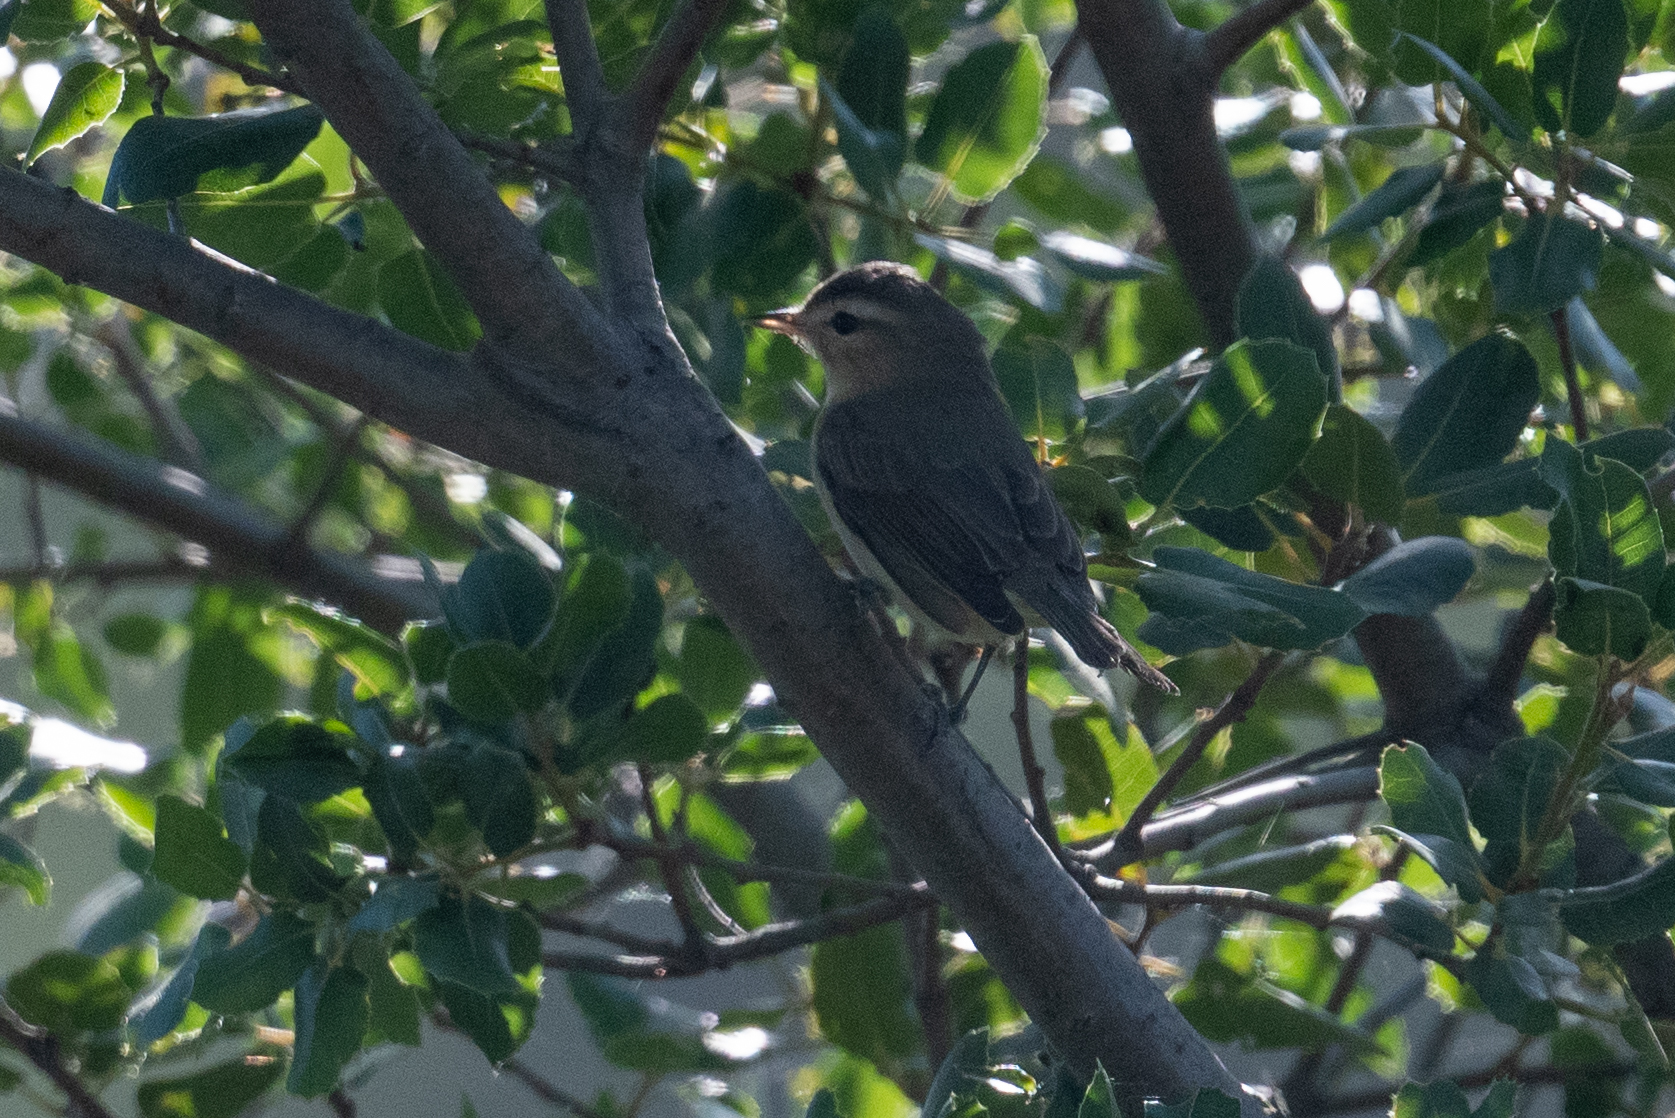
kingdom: Animalia
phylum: Chordata
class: Aves
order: Passeriformes
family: Vireonidae
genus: Vireo
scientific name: Vireo gilvus
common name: Warbling vireo
